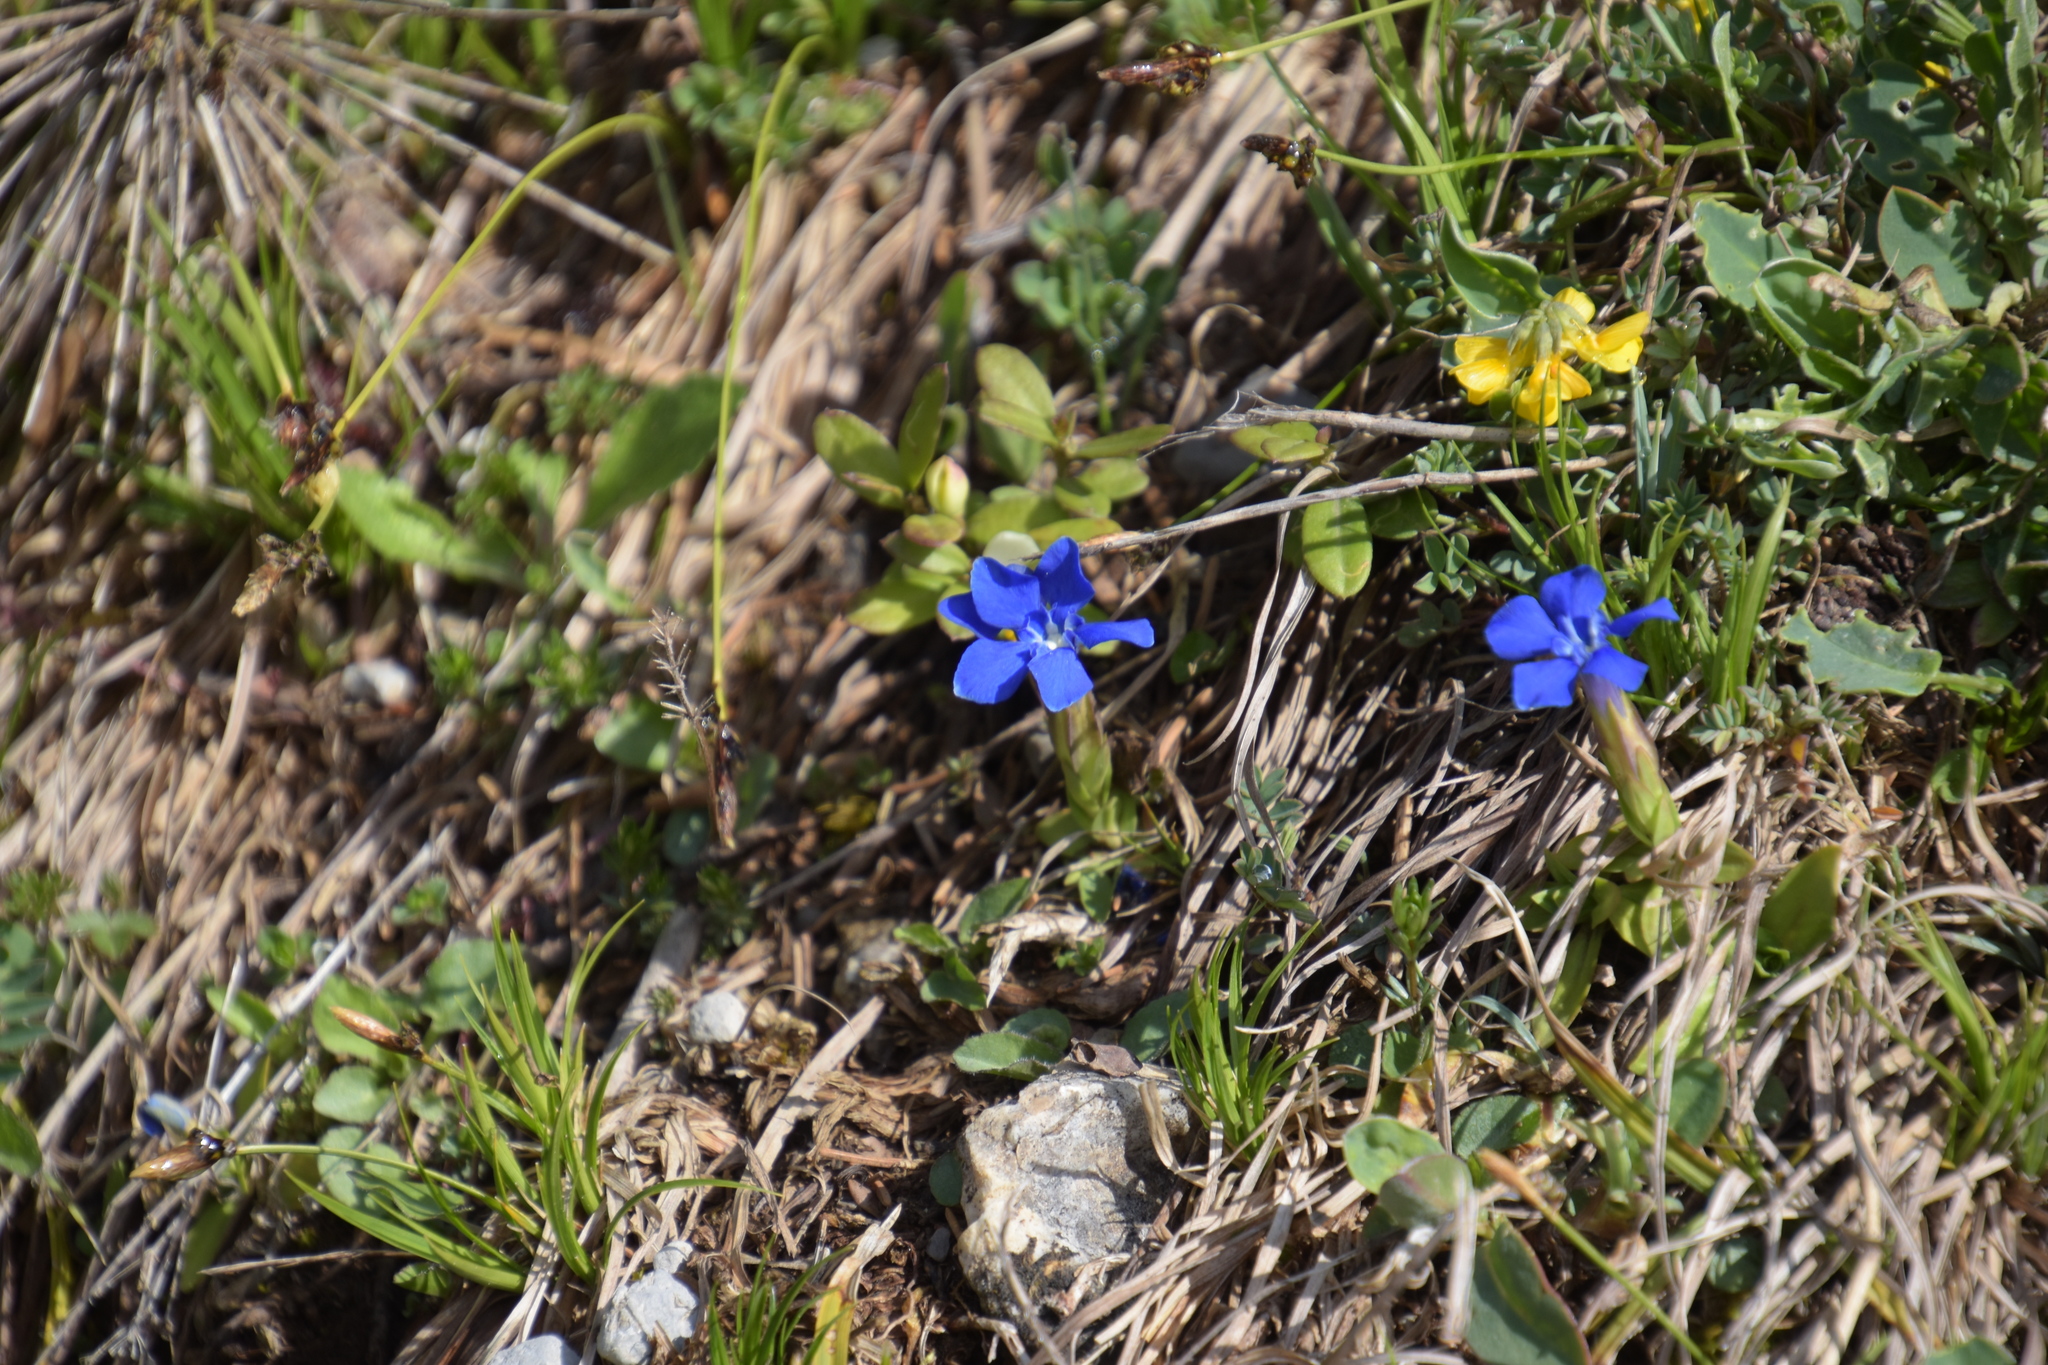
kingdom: Plantae
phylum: Tracheophyta
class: Magnoliopsida
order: Gentianales
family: Gentianaceae
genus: Gentiana
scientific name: Gentiana verna
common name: Spring gentian
